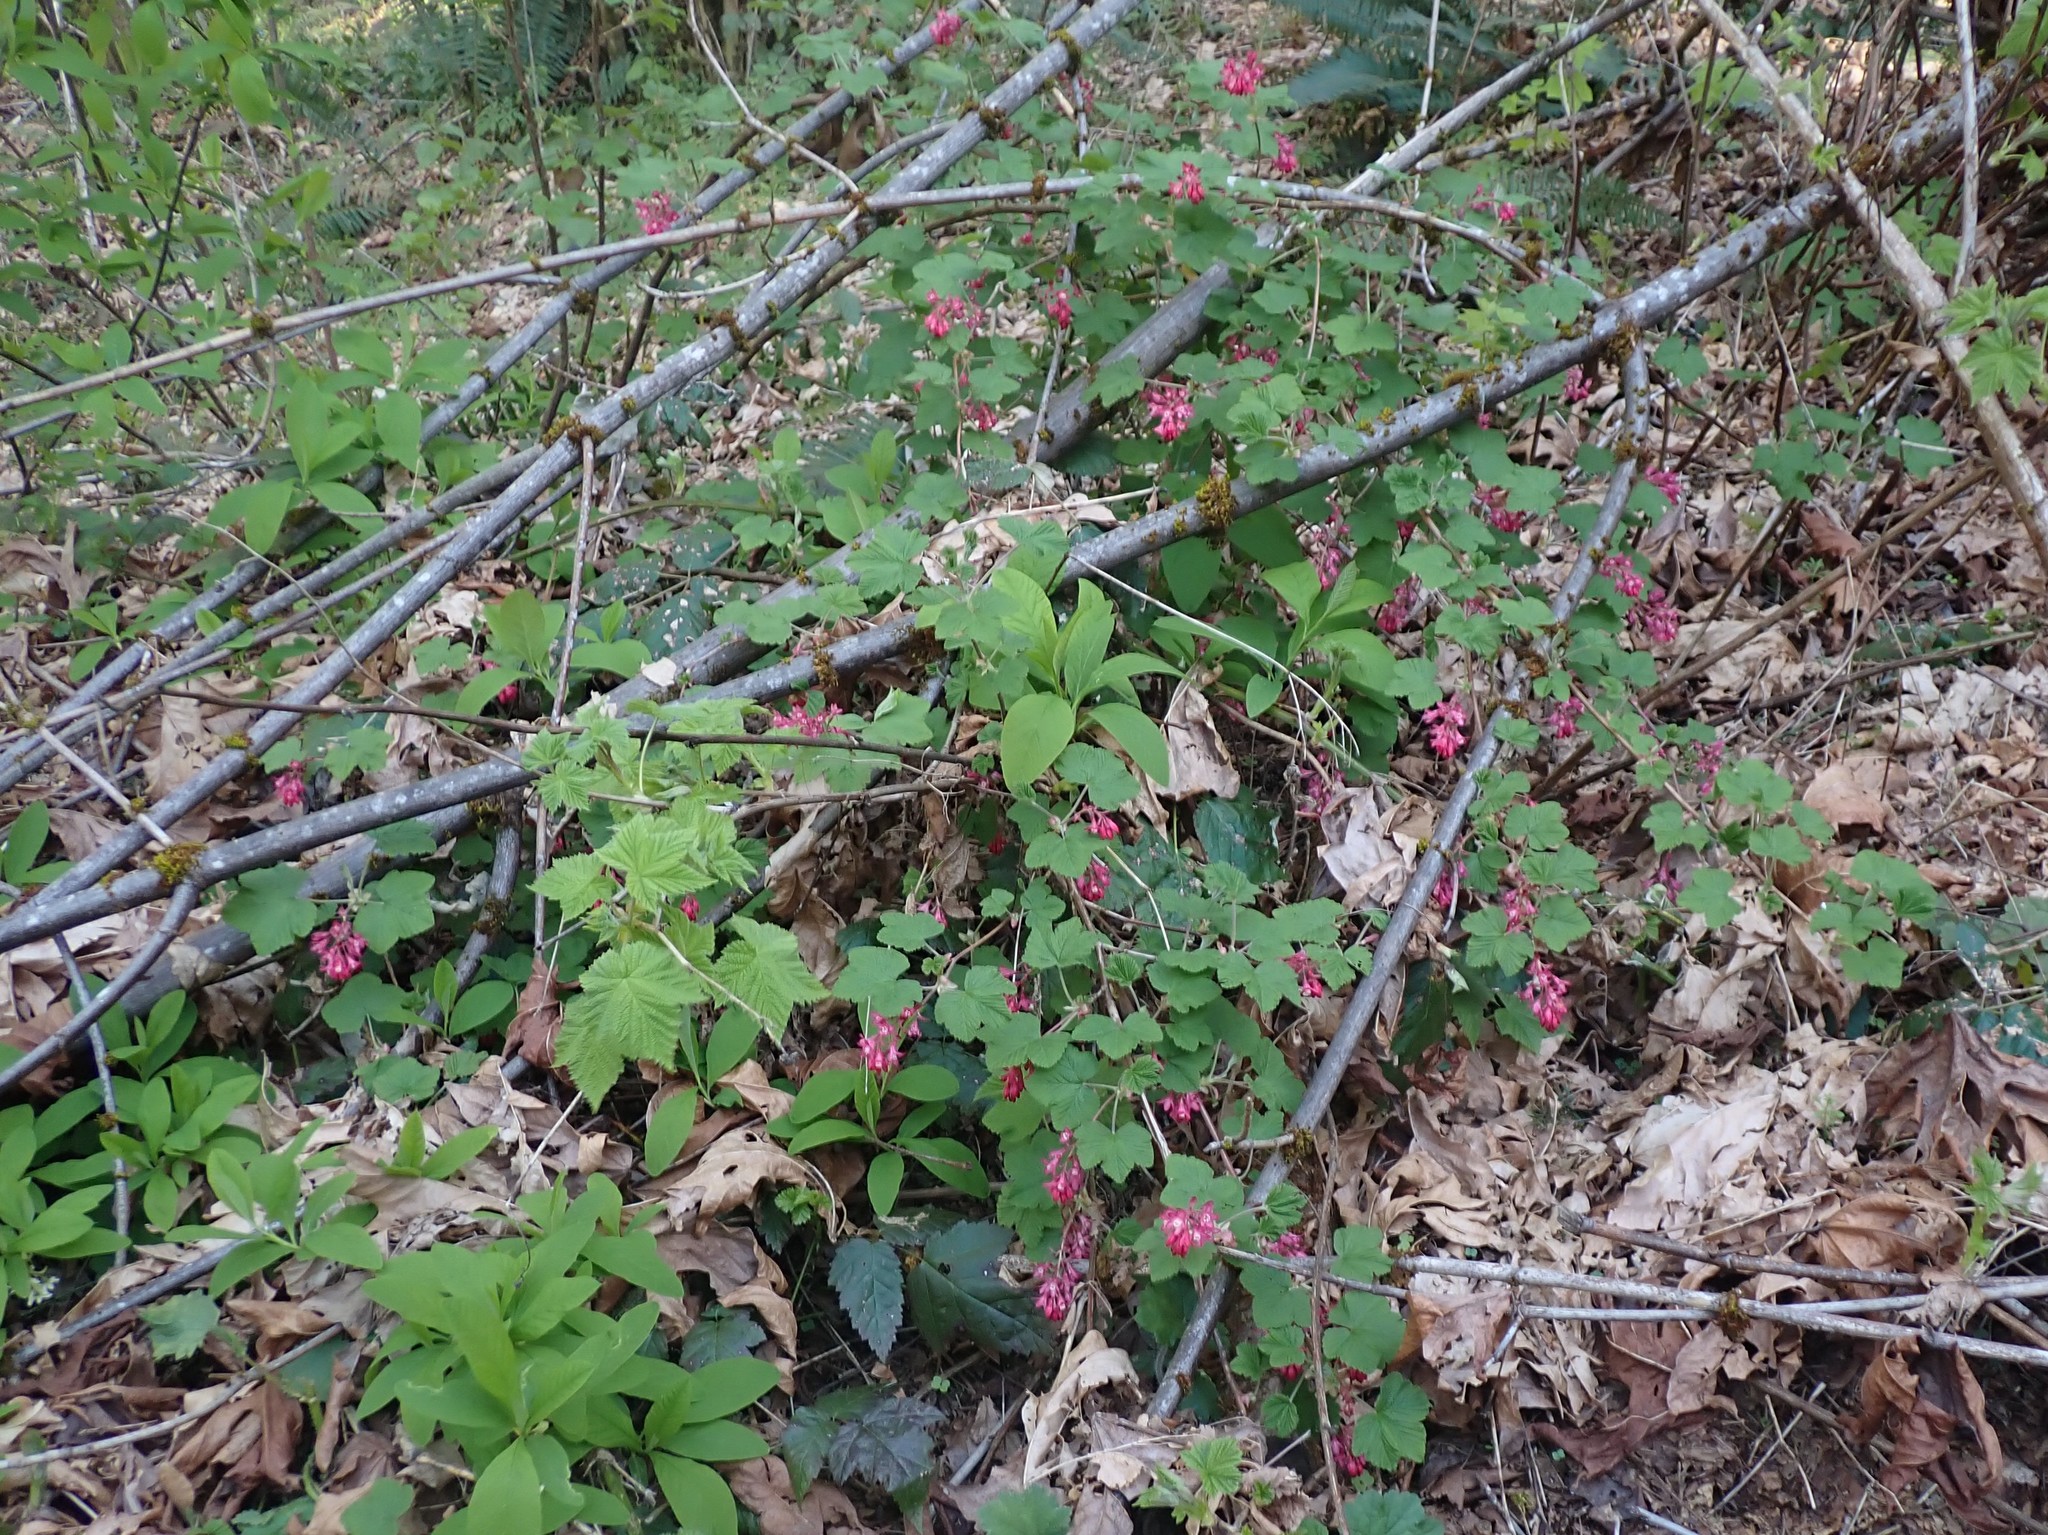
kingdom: Plantae
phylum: Tracheophyta
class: Magnoliopsida
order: Saxifragales
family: Grossulariaceae
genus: Ribes
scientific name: Ribes sanguineum
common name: Flowering currant
